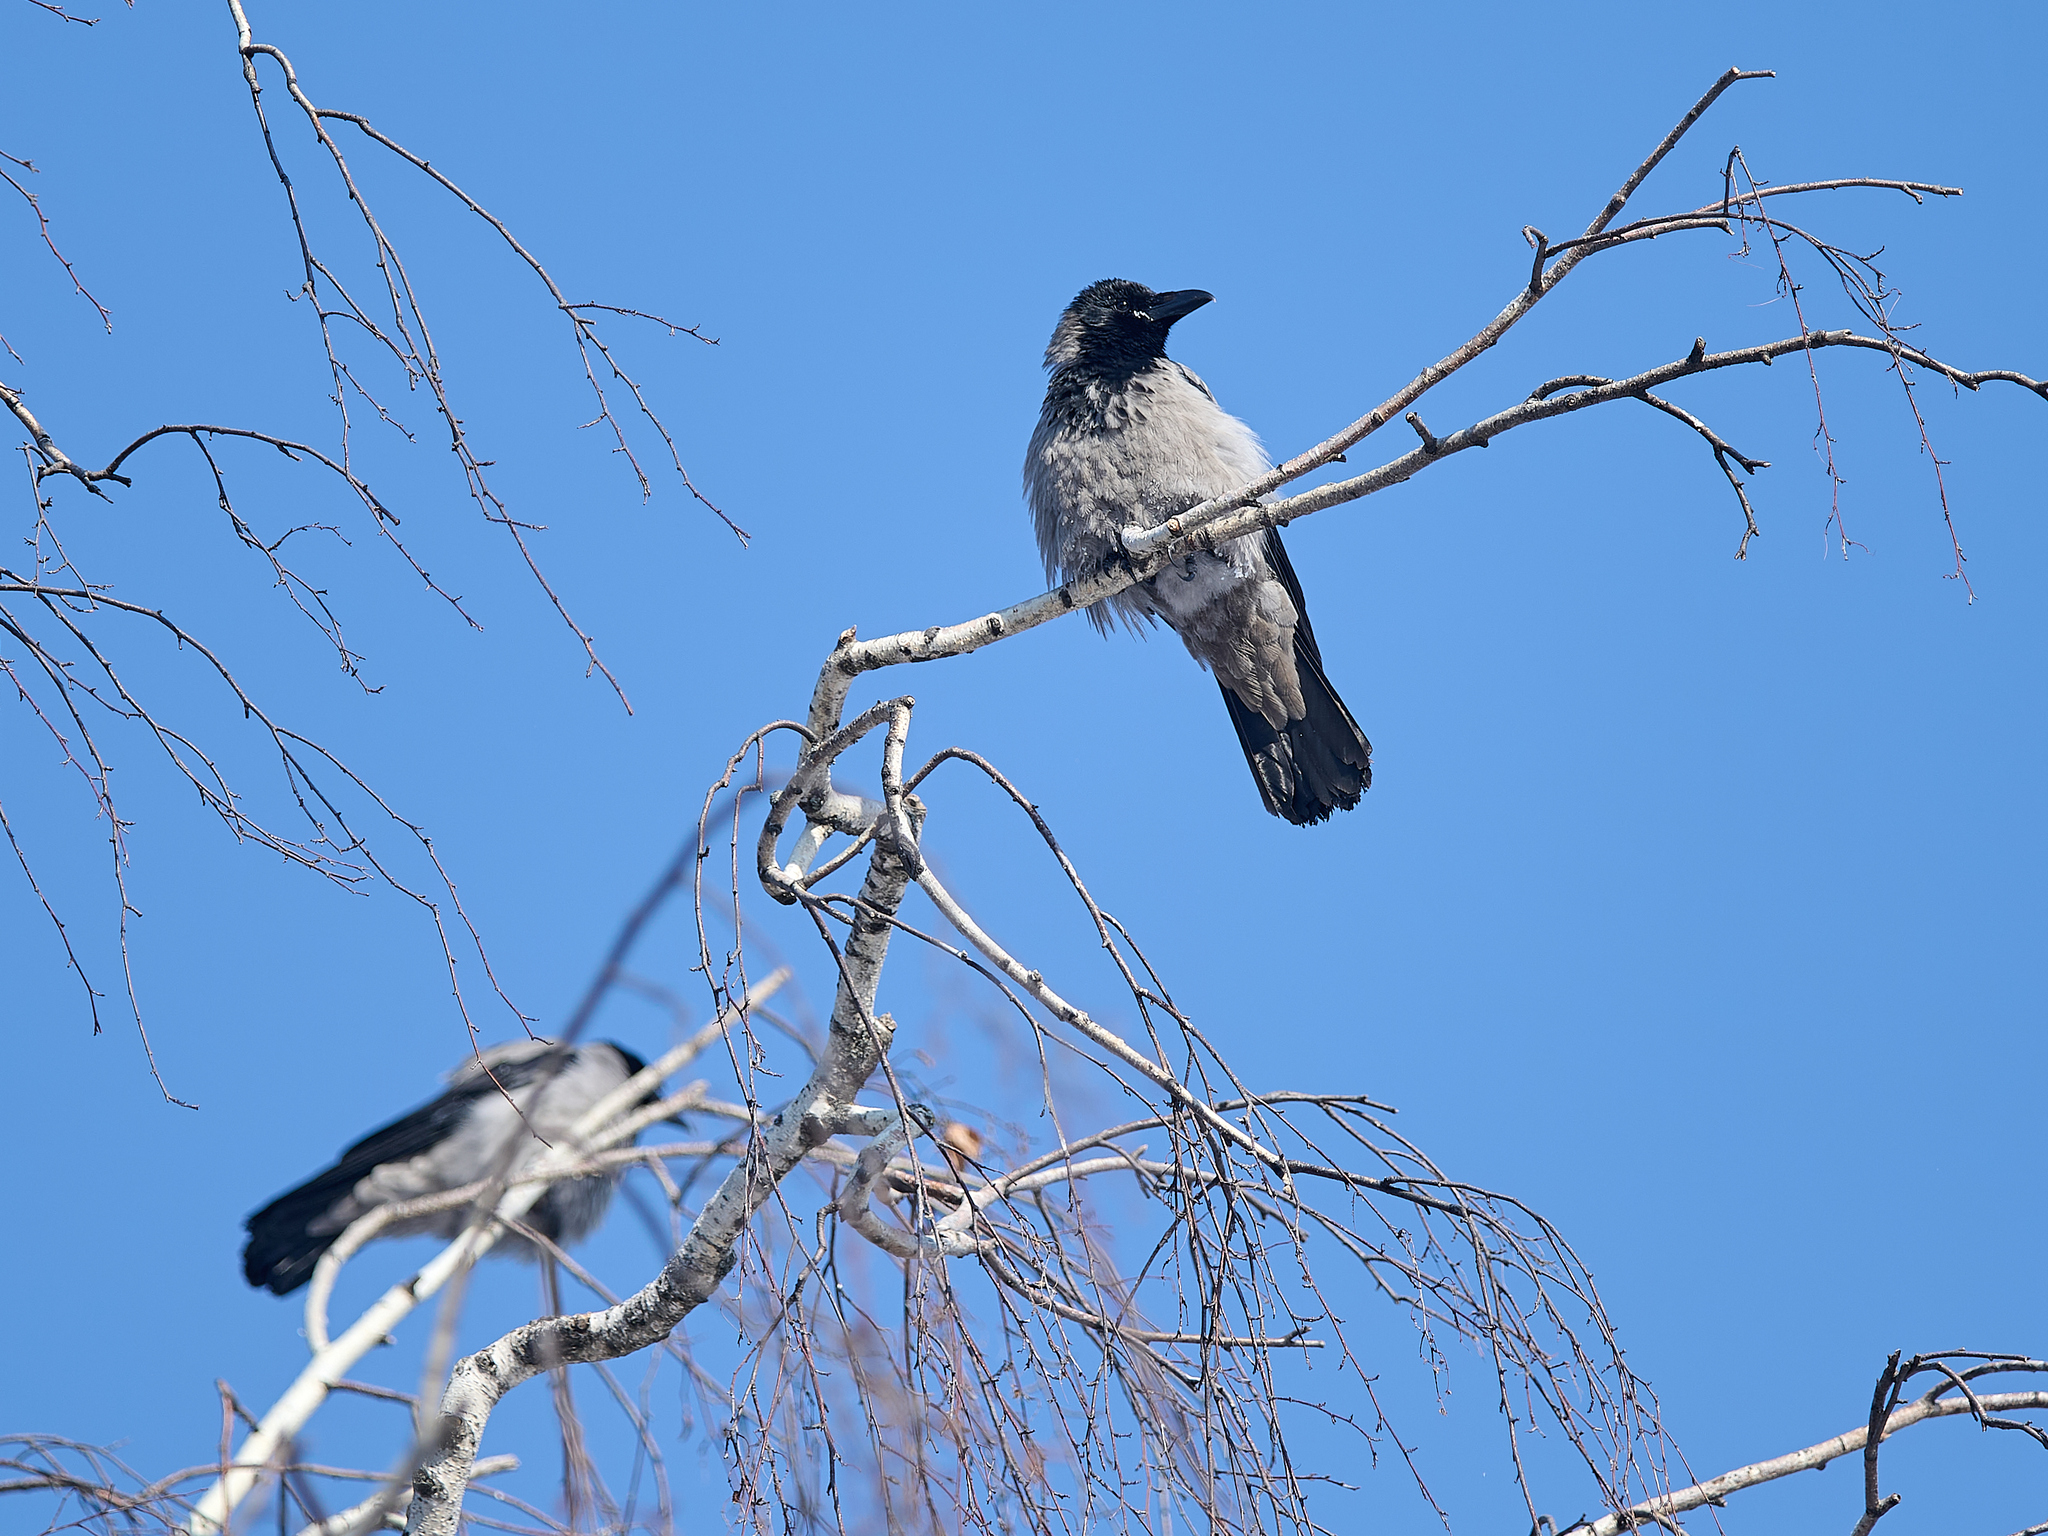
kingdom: Animalia
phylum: Chordata
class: Aves
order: Passeriformes
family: Corvidae
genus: Corvus
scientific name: Corvus cornix
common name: Hooded crow
